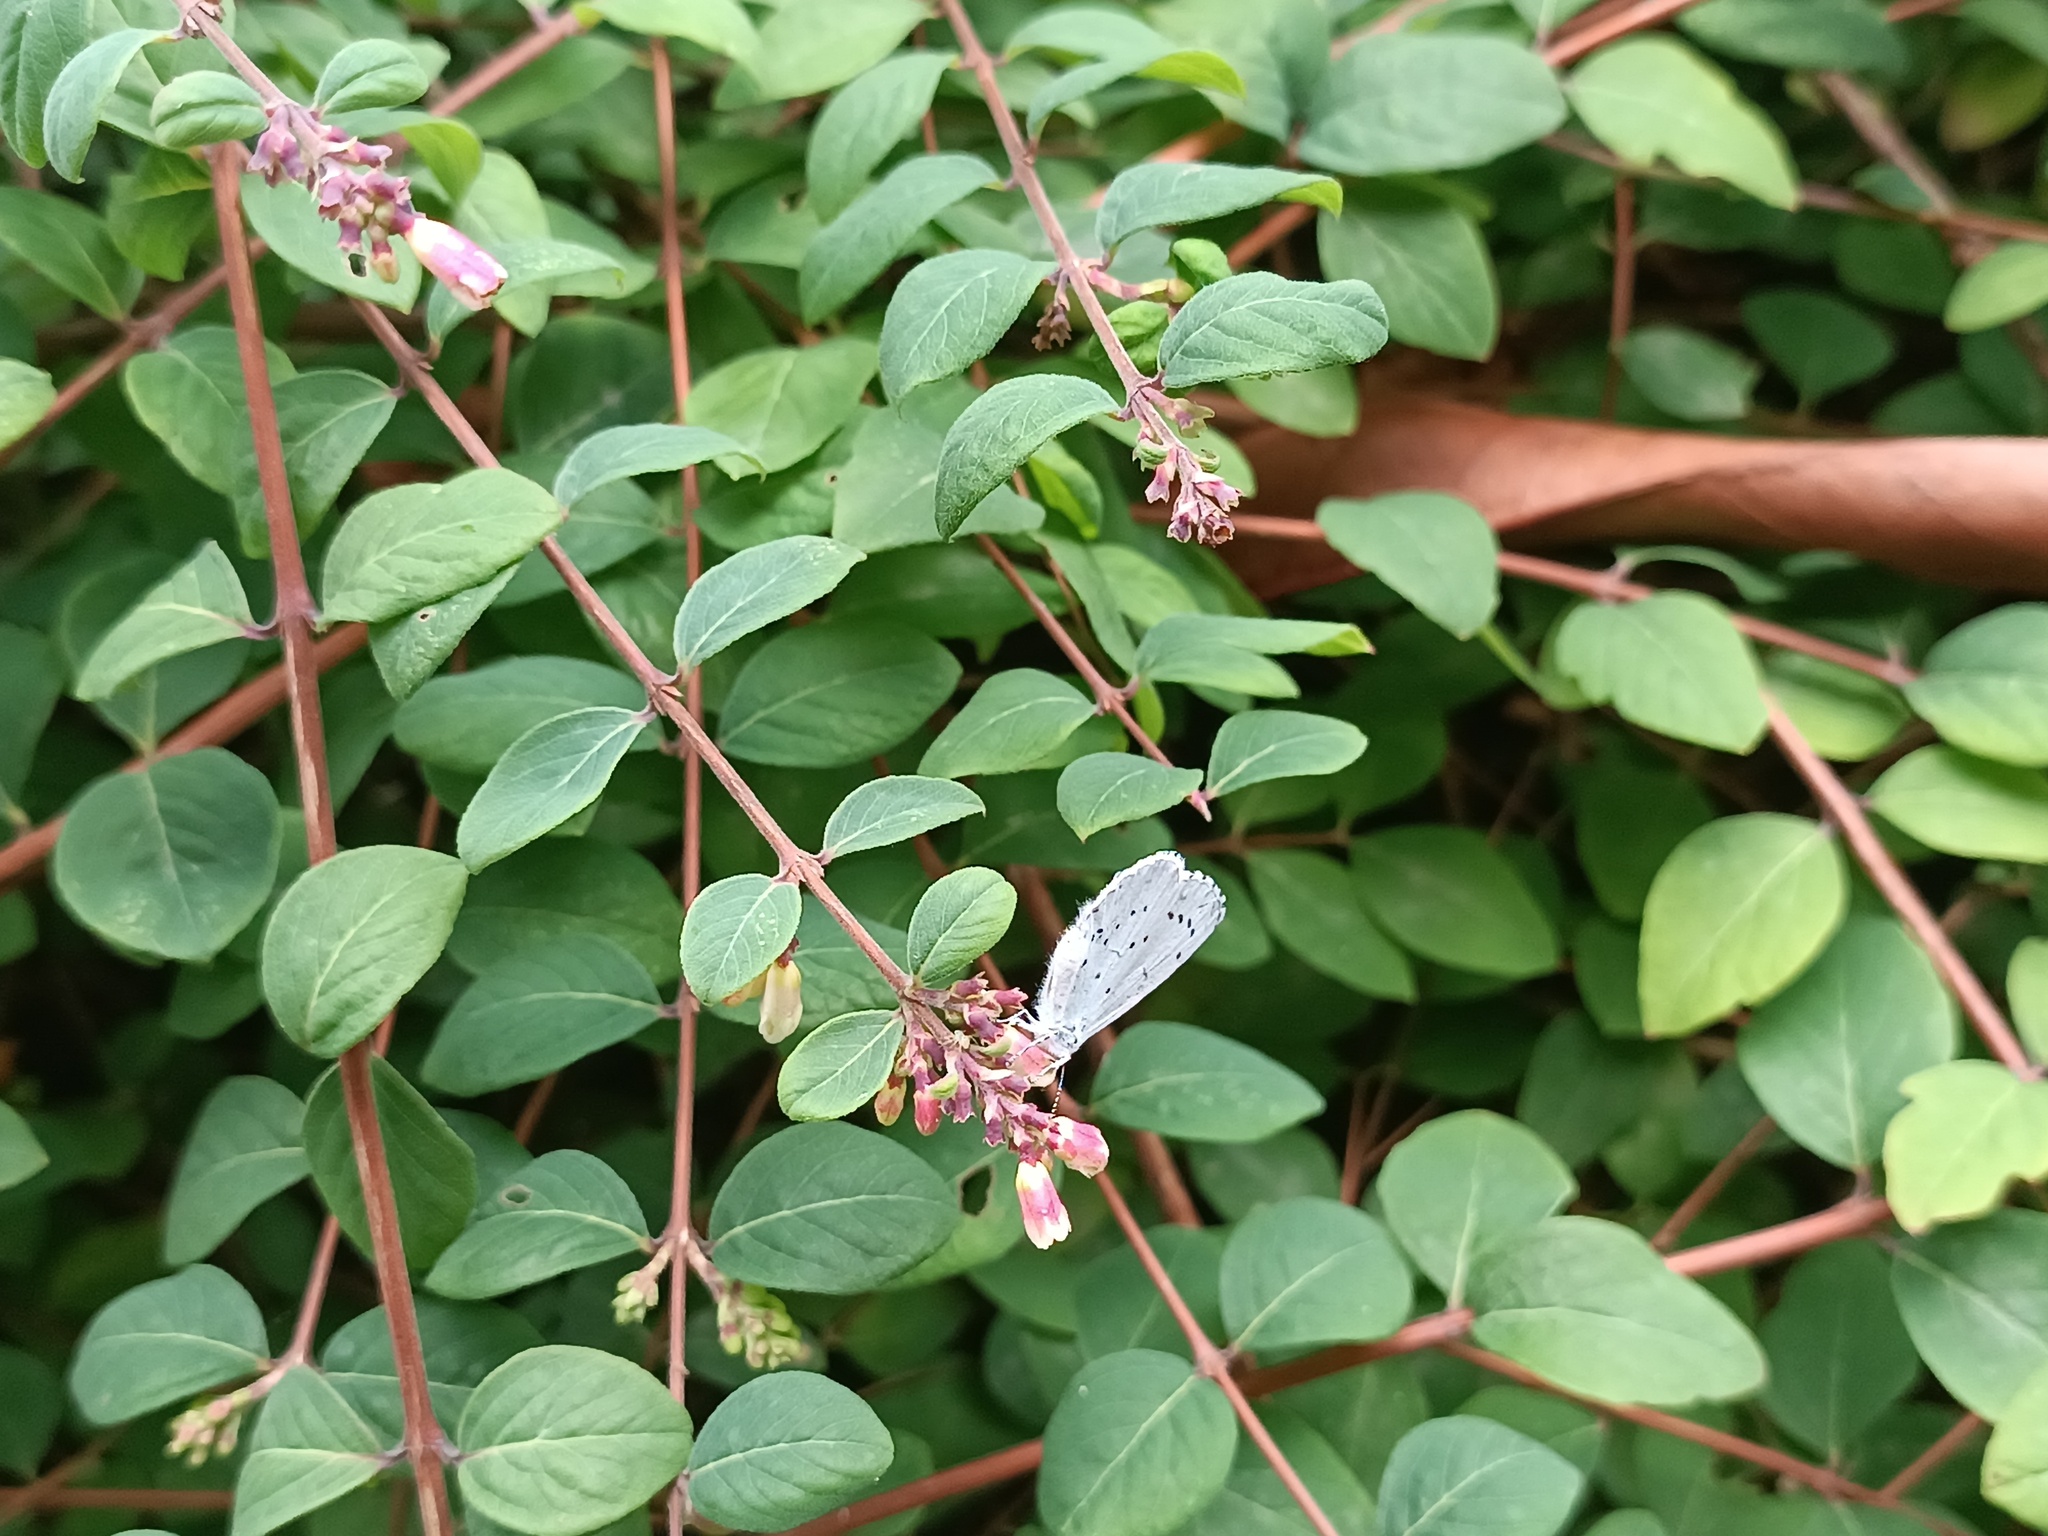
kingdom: Animalia
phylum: Arthropoda
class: Insecta
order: Lepidoptera
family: Lycaenidae
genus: Celastrina
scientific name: Celastrina argiolus
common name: Holly blue
